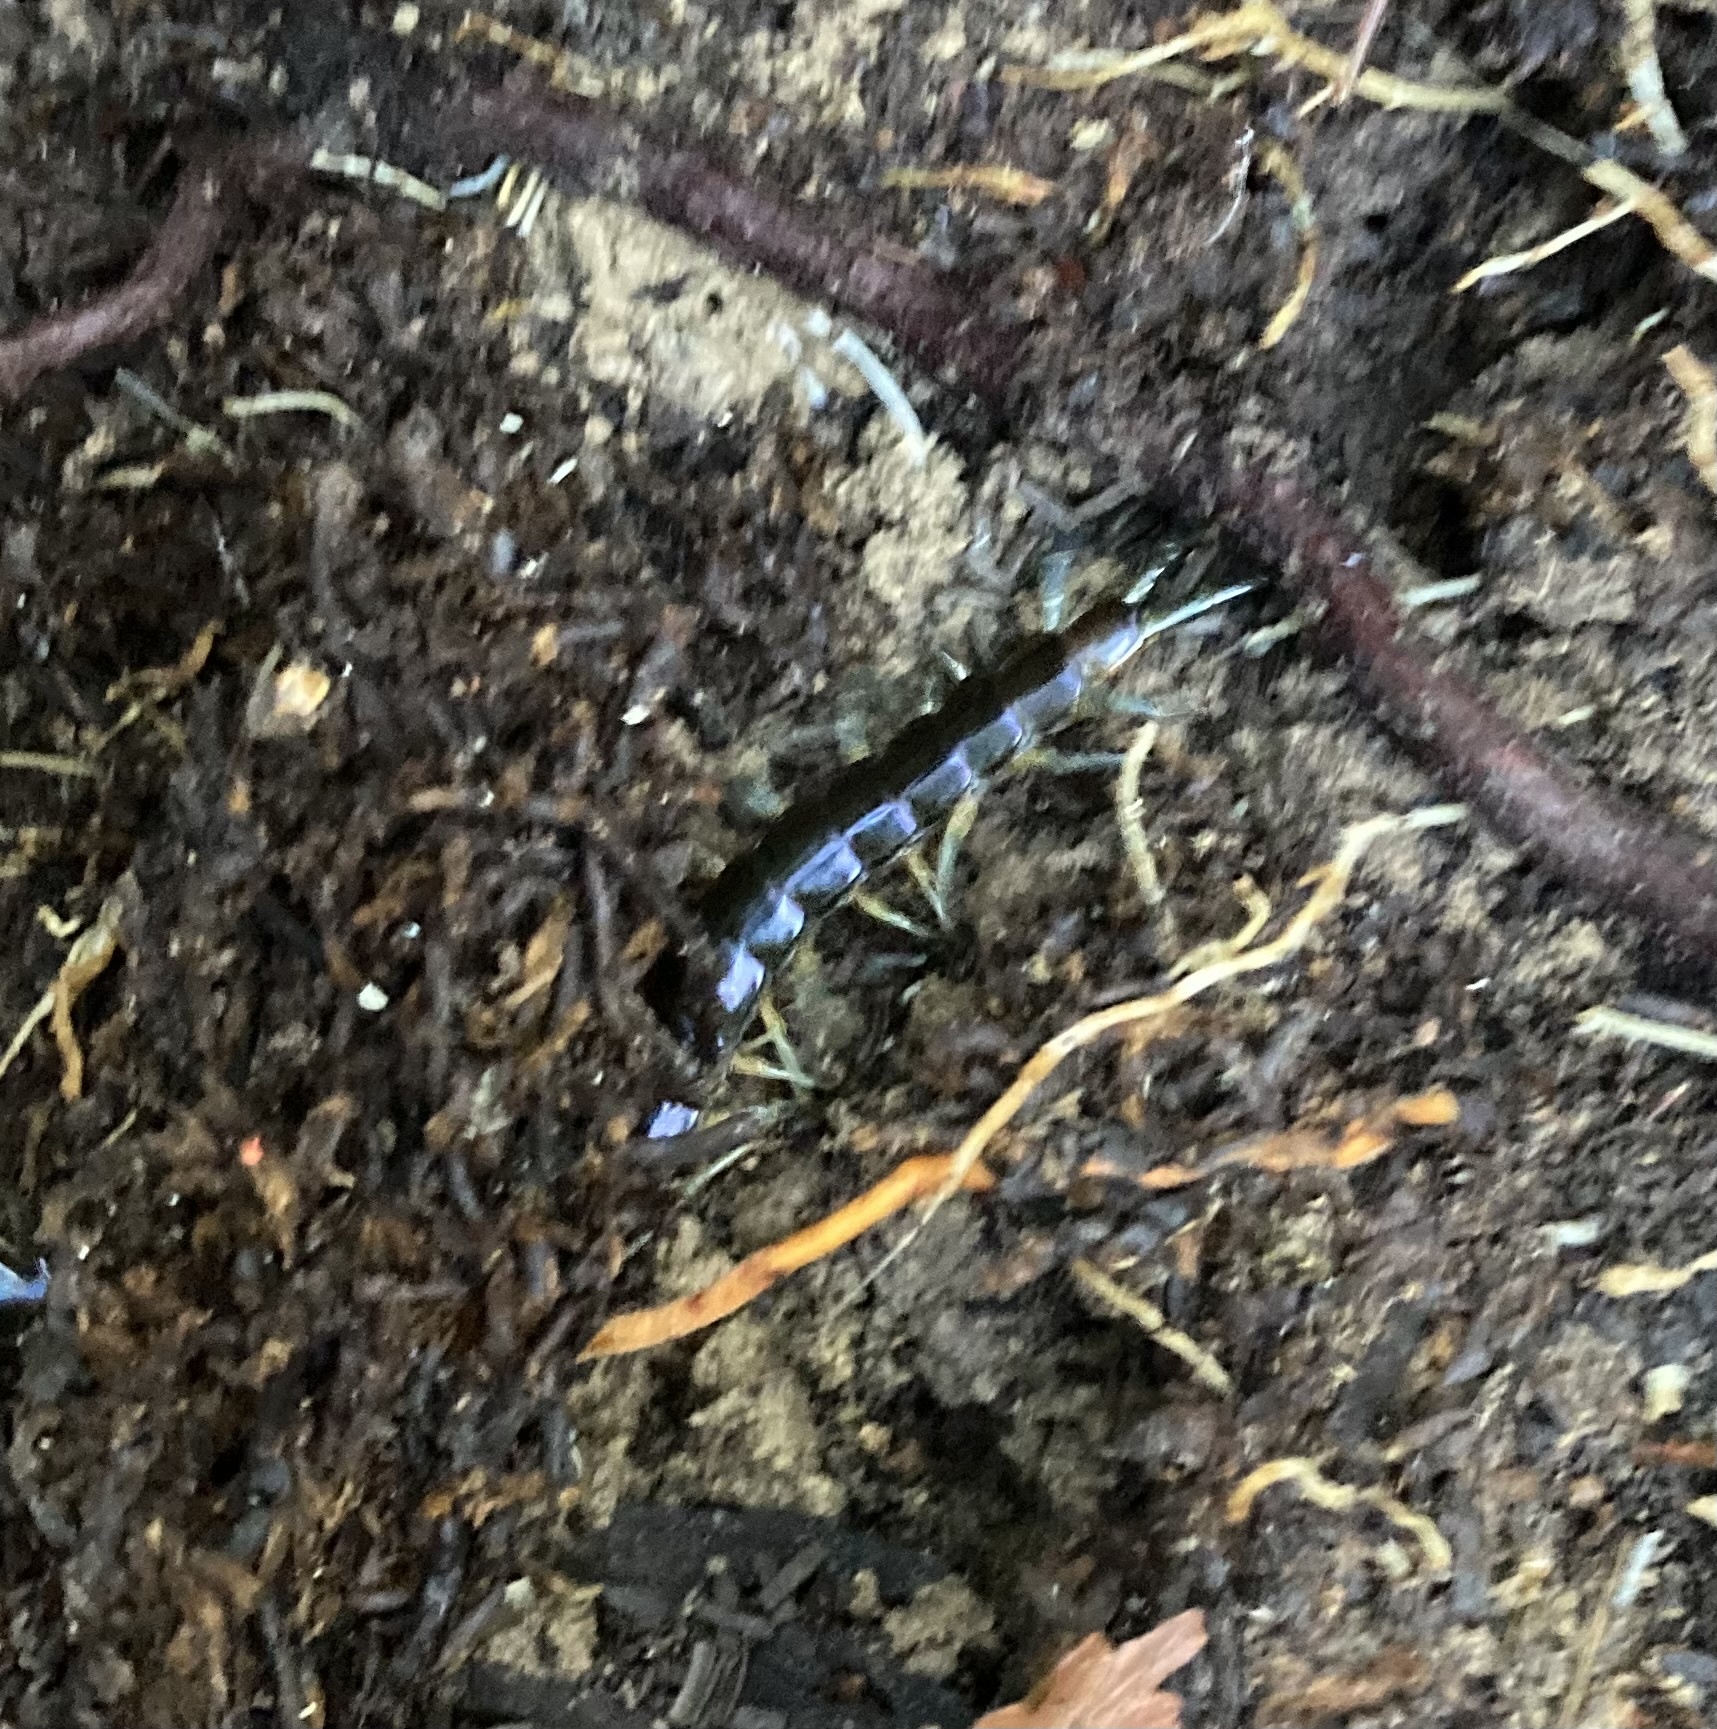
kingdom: Animalia
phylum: Arthropoda
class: Chilopoda
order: Scolopendromorpha
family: Scolopendridae
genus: Cormocephalus
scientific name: Cormocephalus rubriceps
